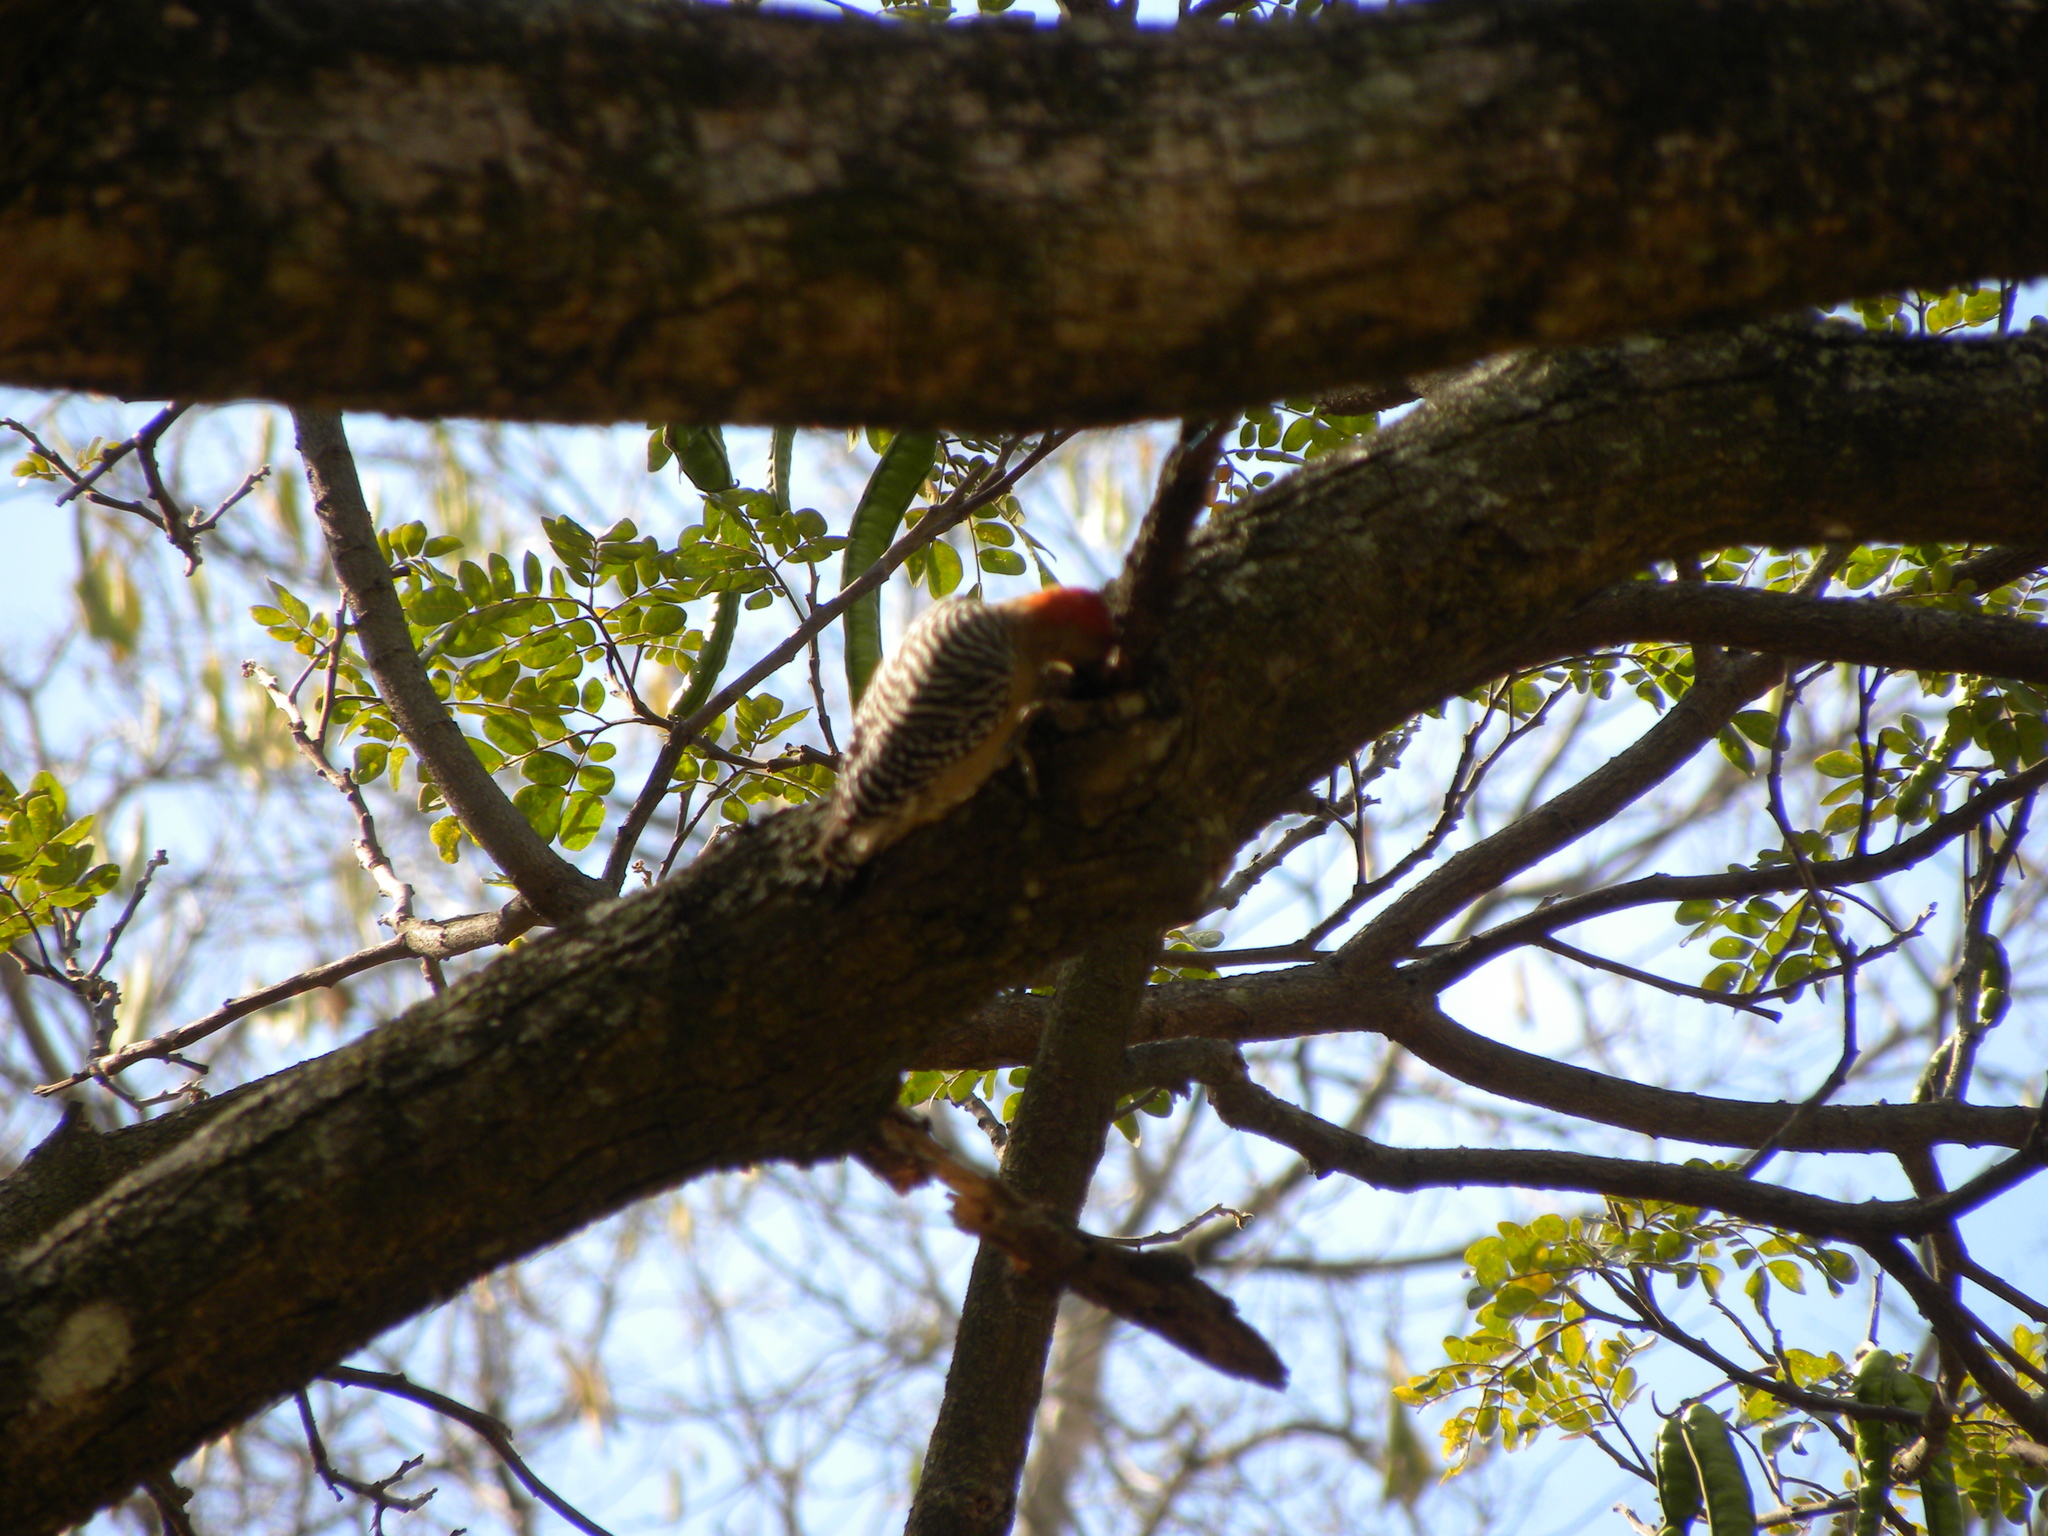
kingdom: Animalia
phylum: Chordata
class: Aves
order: Piciformes
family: Picidae
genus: Melanerpes
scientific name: Melanerpes rubricapillus
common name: Red-crowned woodpecker
